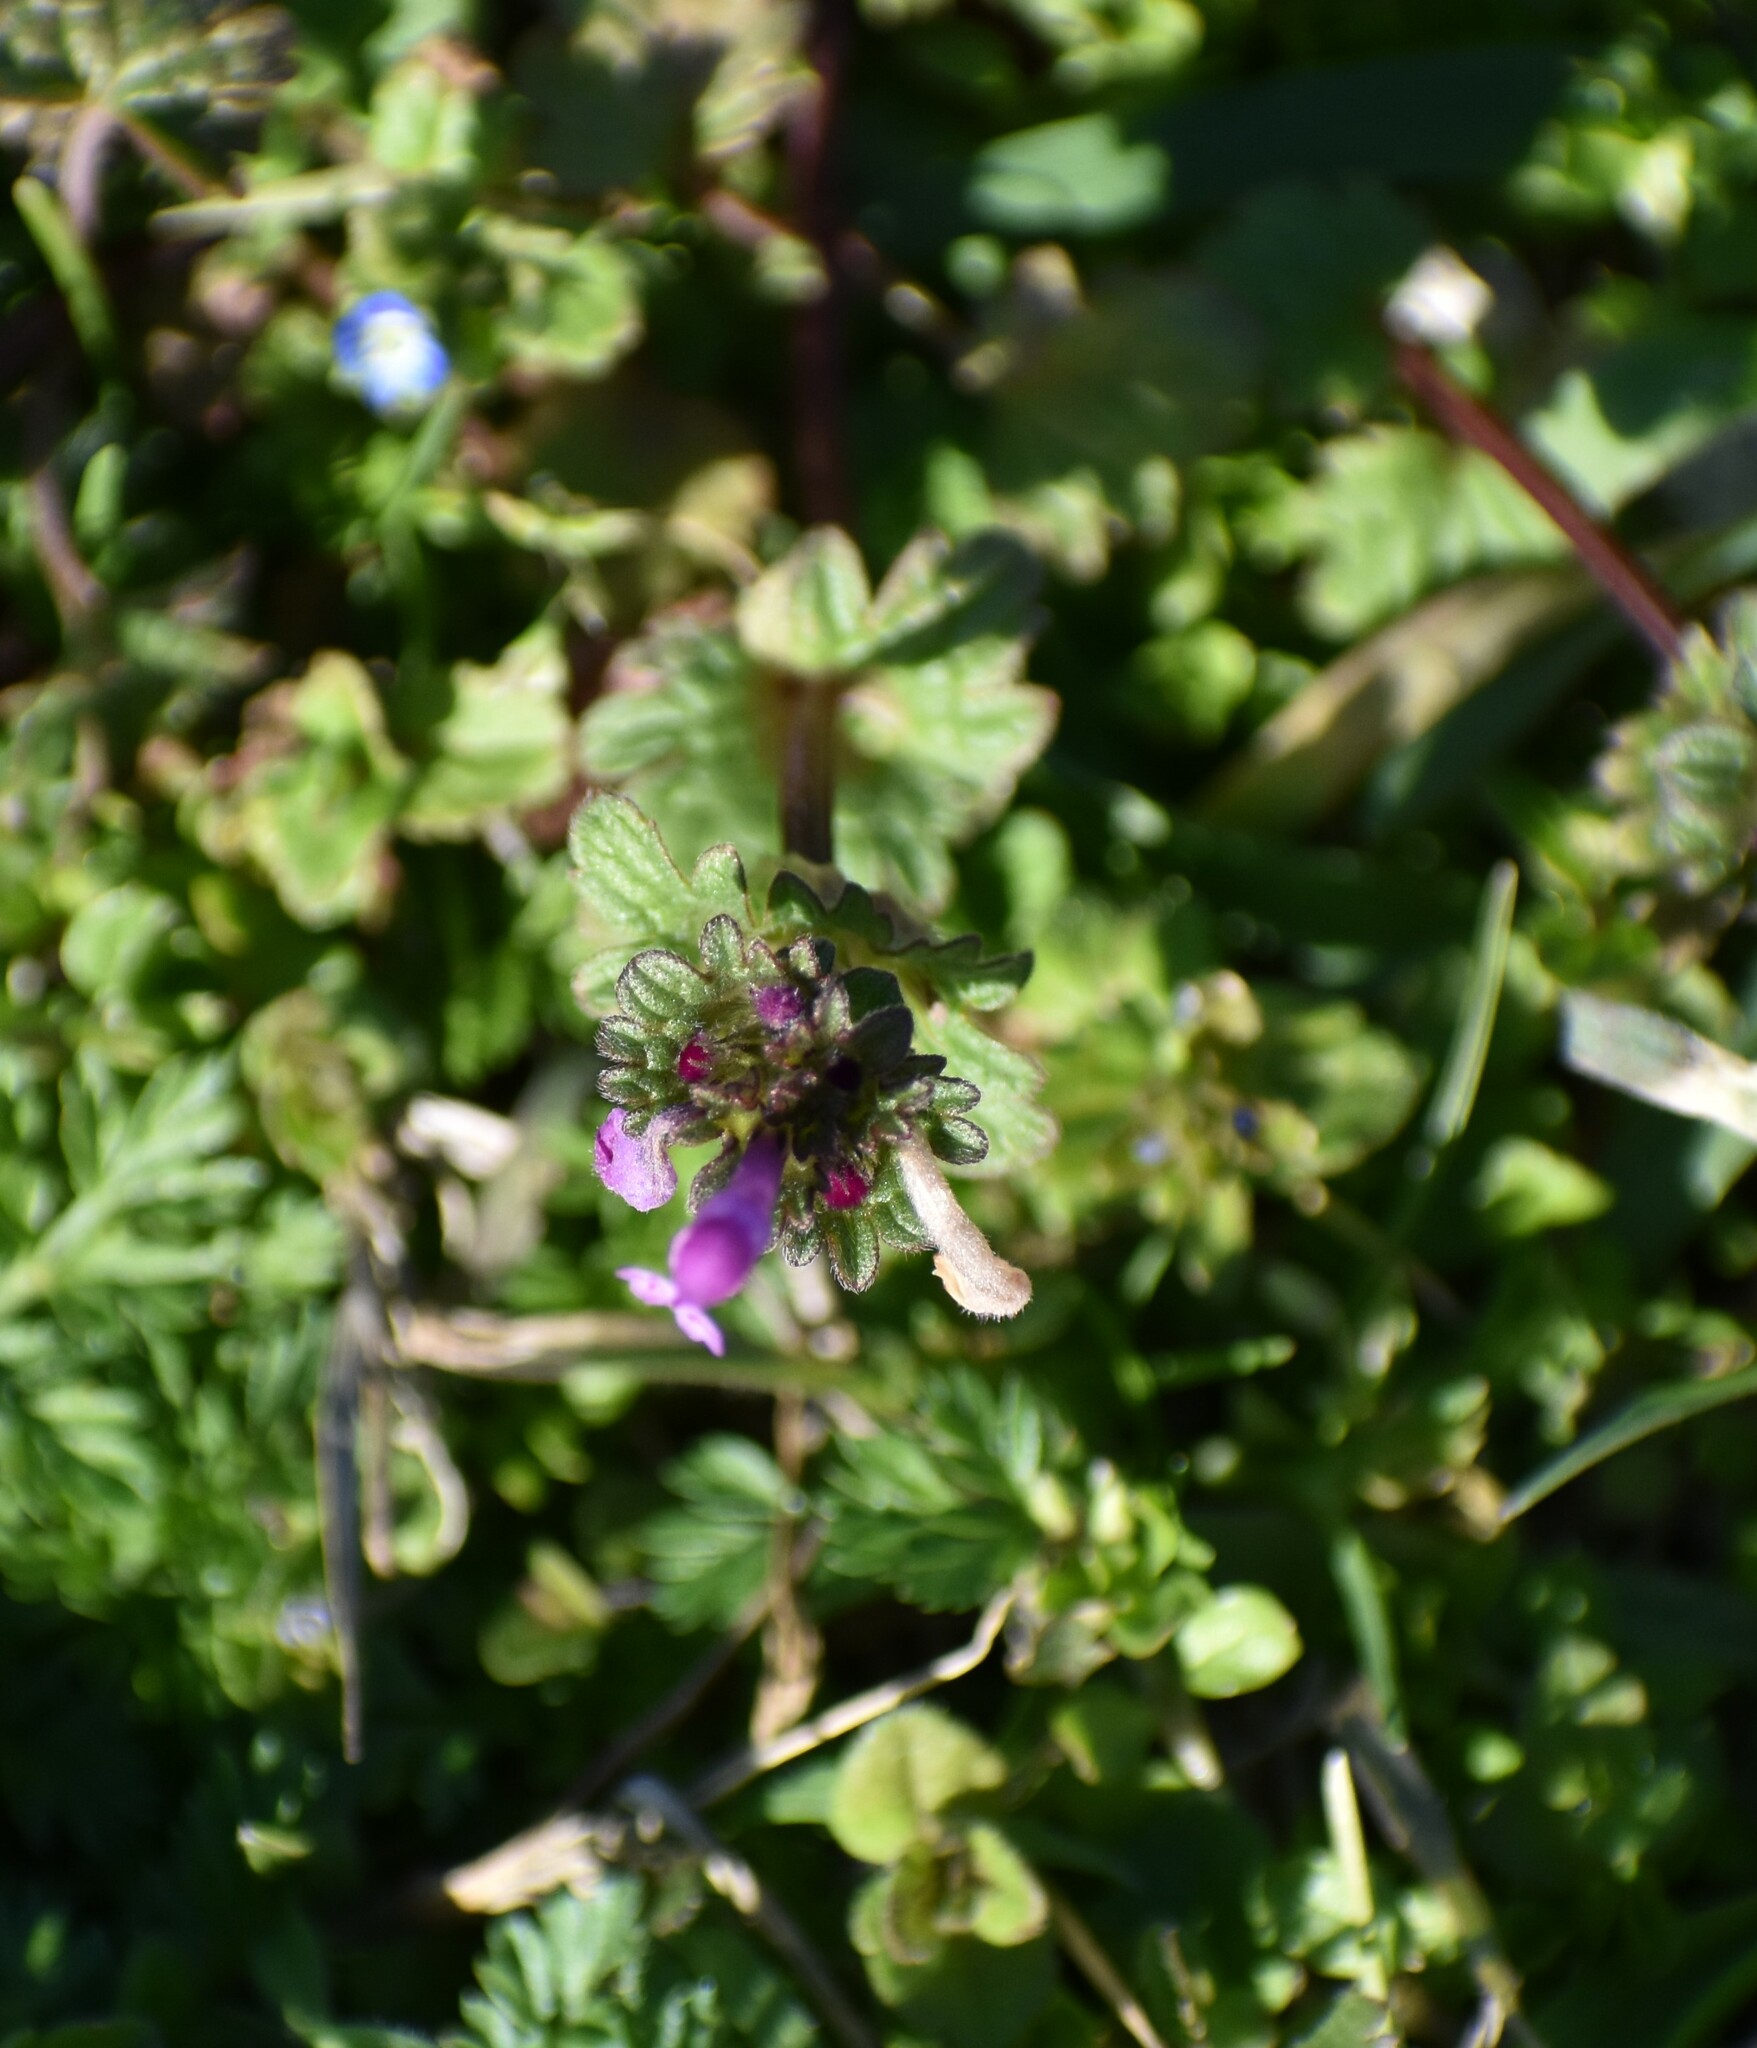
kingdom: Plantae
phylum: Tracheophyta
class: Magnoliopsida
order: Lamiales
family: Lamiaceae
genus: Lamium
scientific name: Lamium amplexicaule
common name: Henbit dead-nettle
